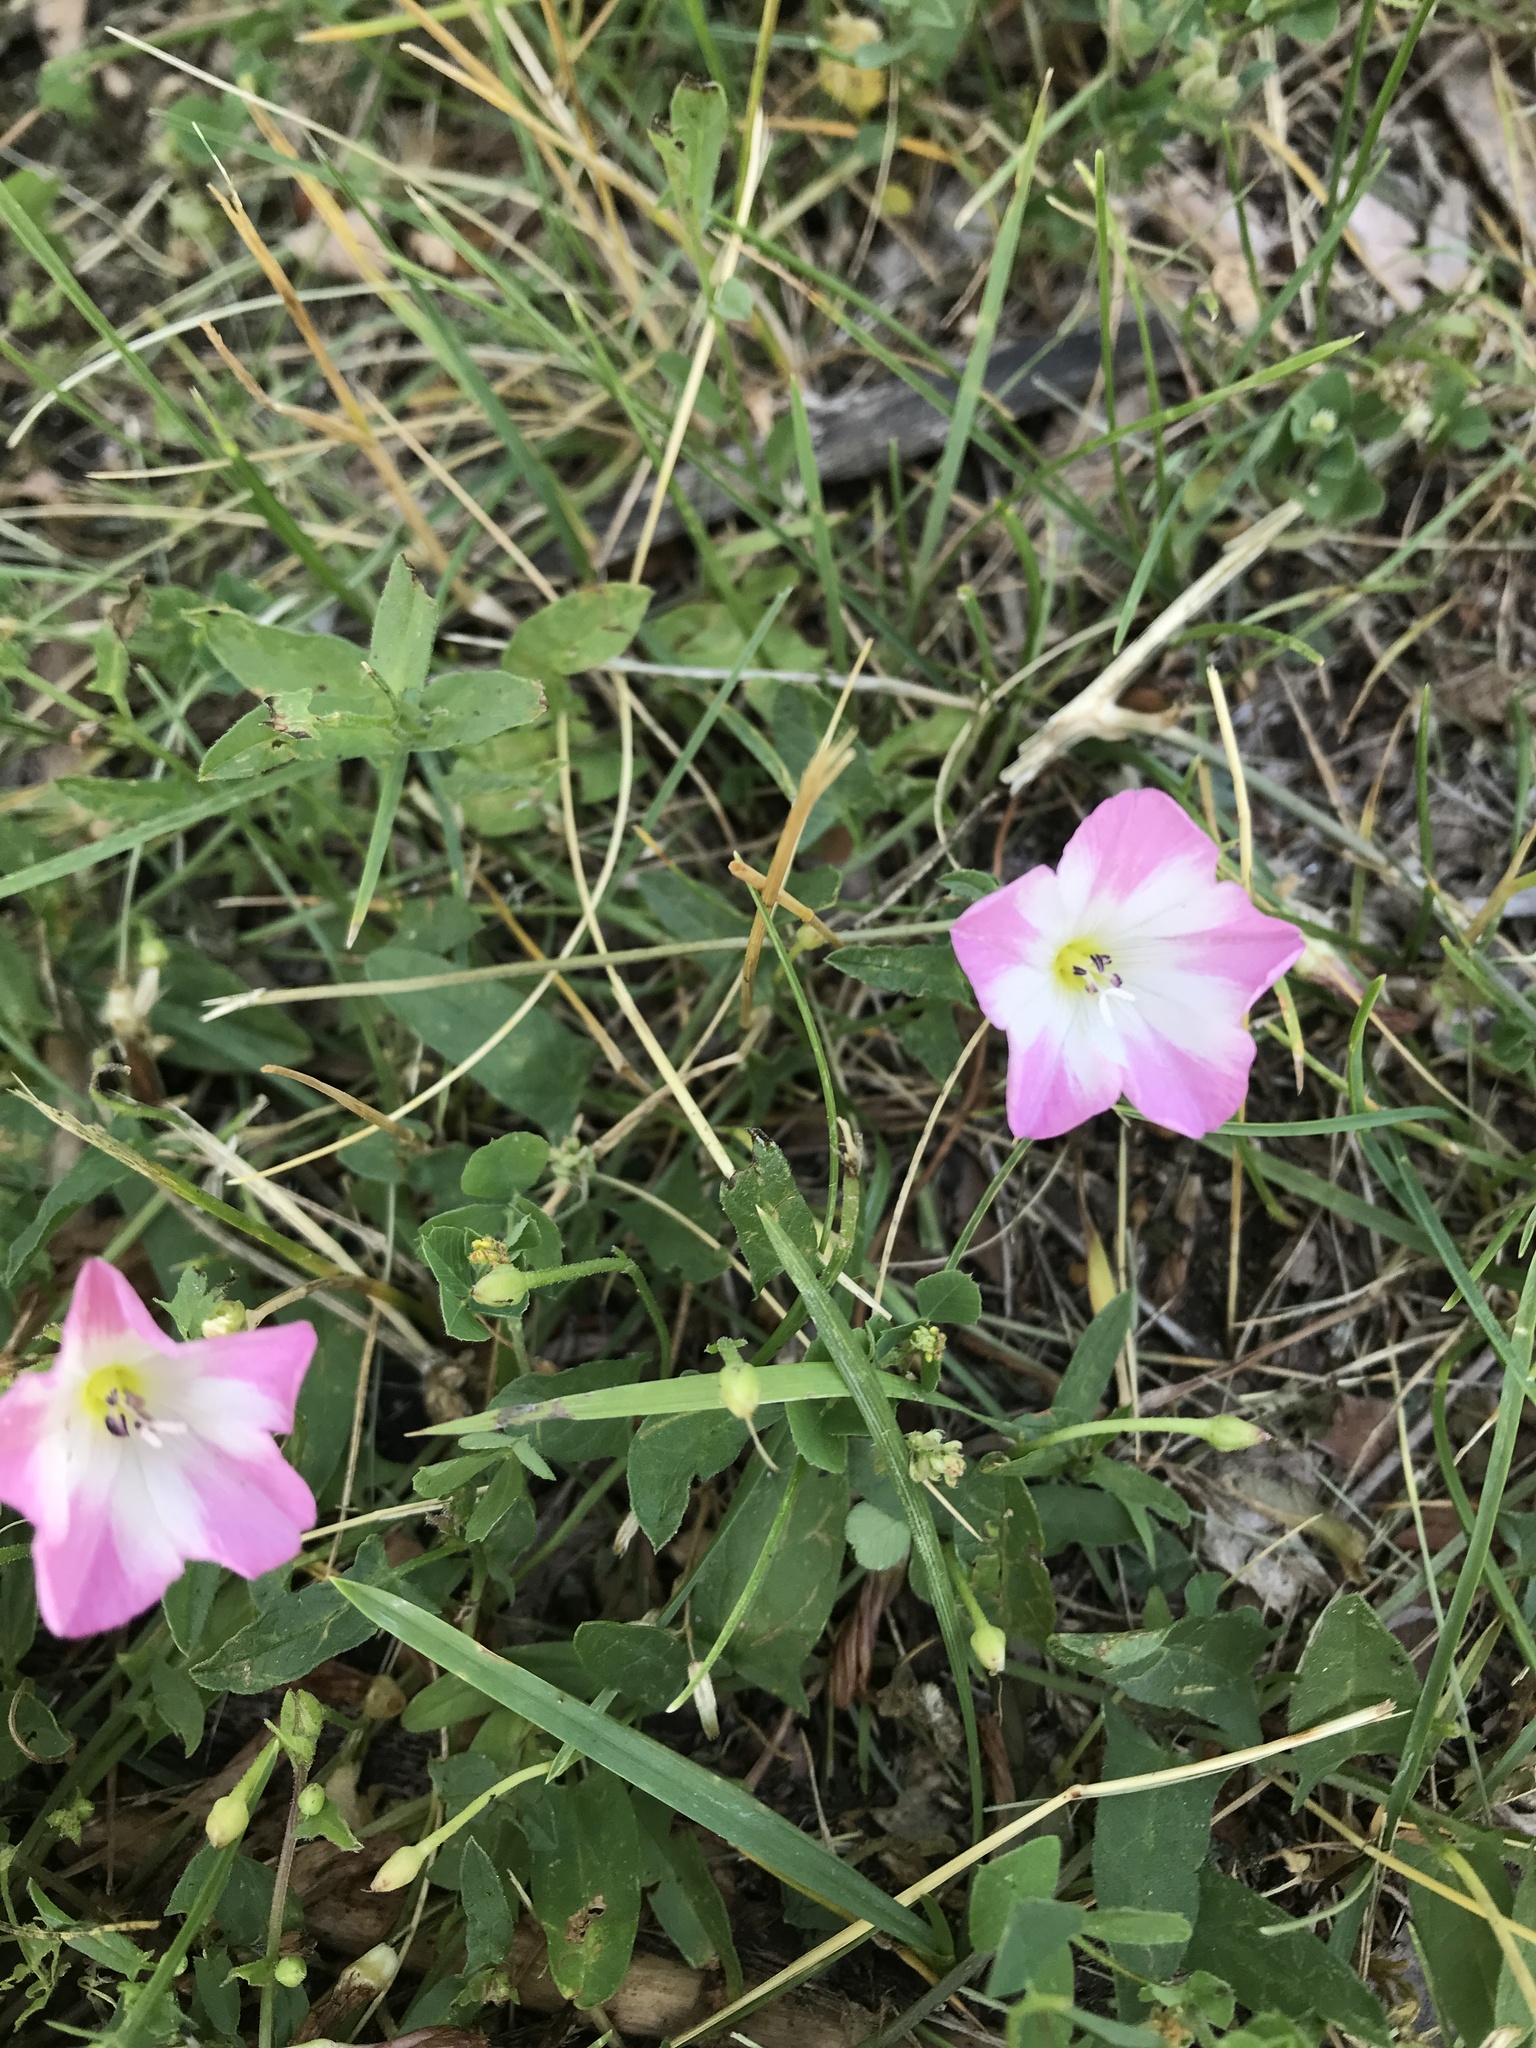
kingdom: Plantae
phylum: Tracheophyta
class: Magnoliopsida
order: Solanales
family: Convolvulaceae
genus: Convolvulus
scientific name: Convolvulus arvensis
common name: Field bindweed
